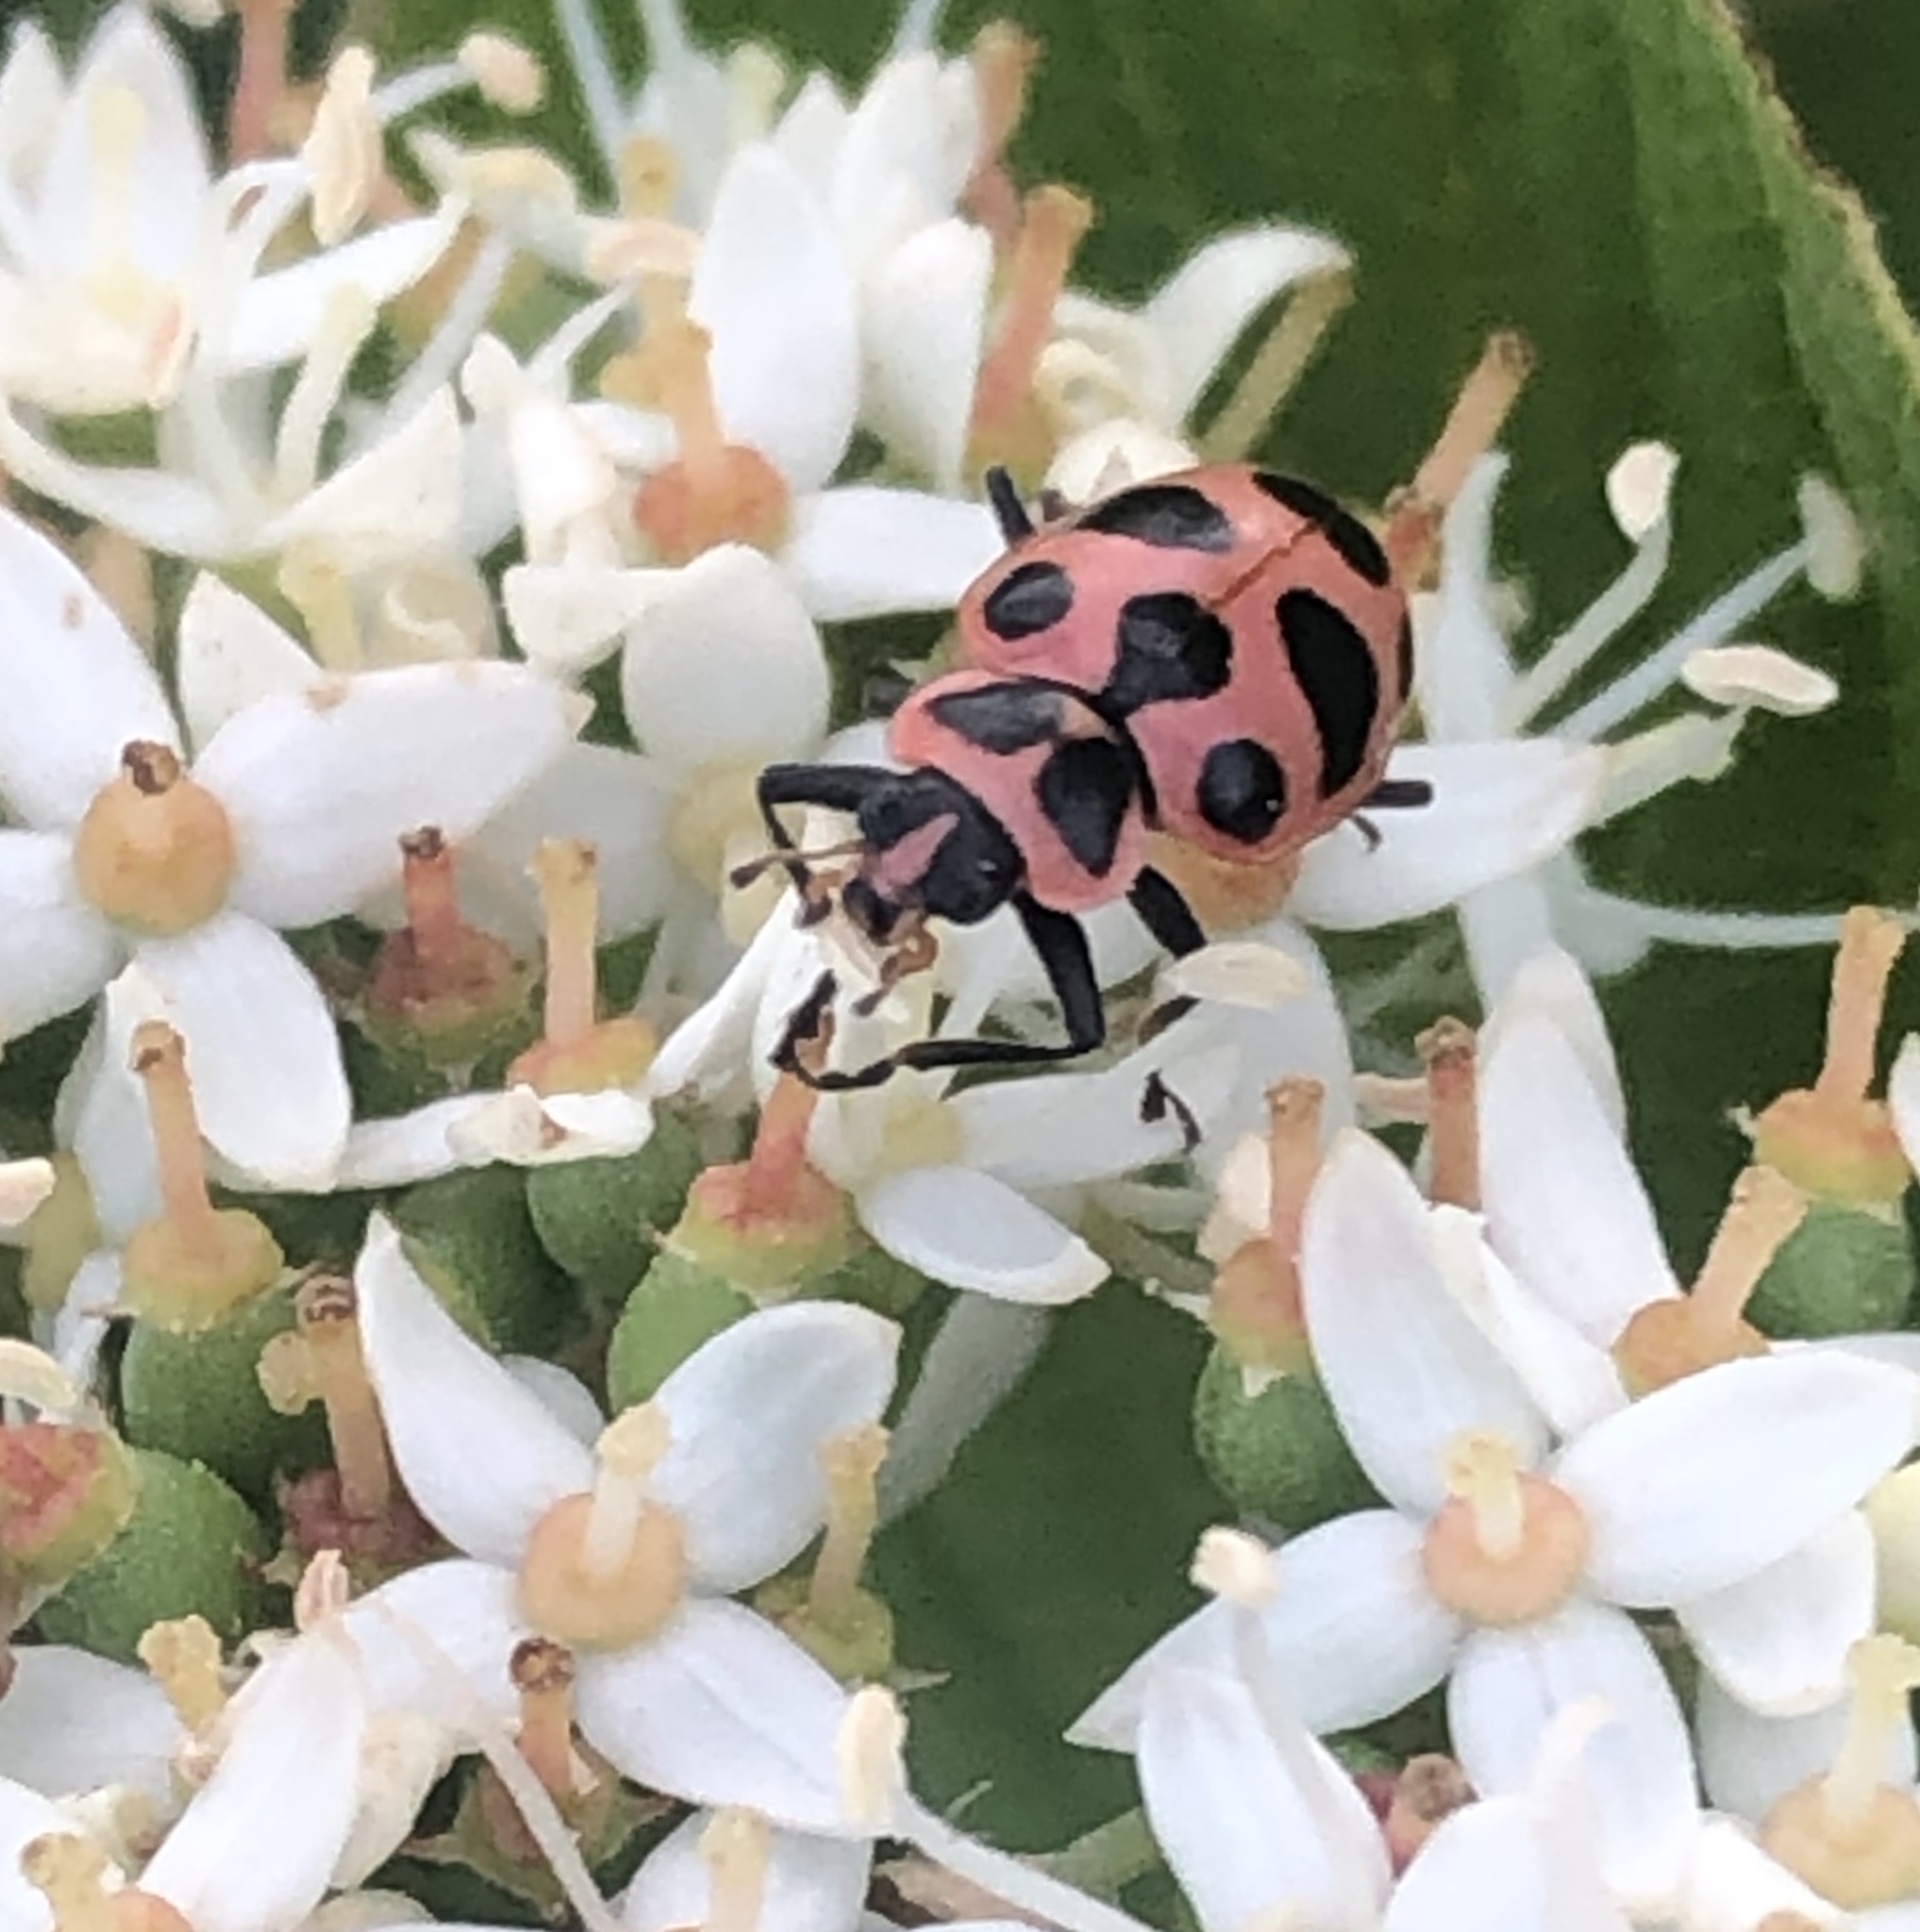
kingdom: Animalia
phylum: Arthropoda
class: Insecta
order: Coleoptera
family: Coccinellidae
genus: Coleomegilla
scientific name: Coleomegilla maculata
